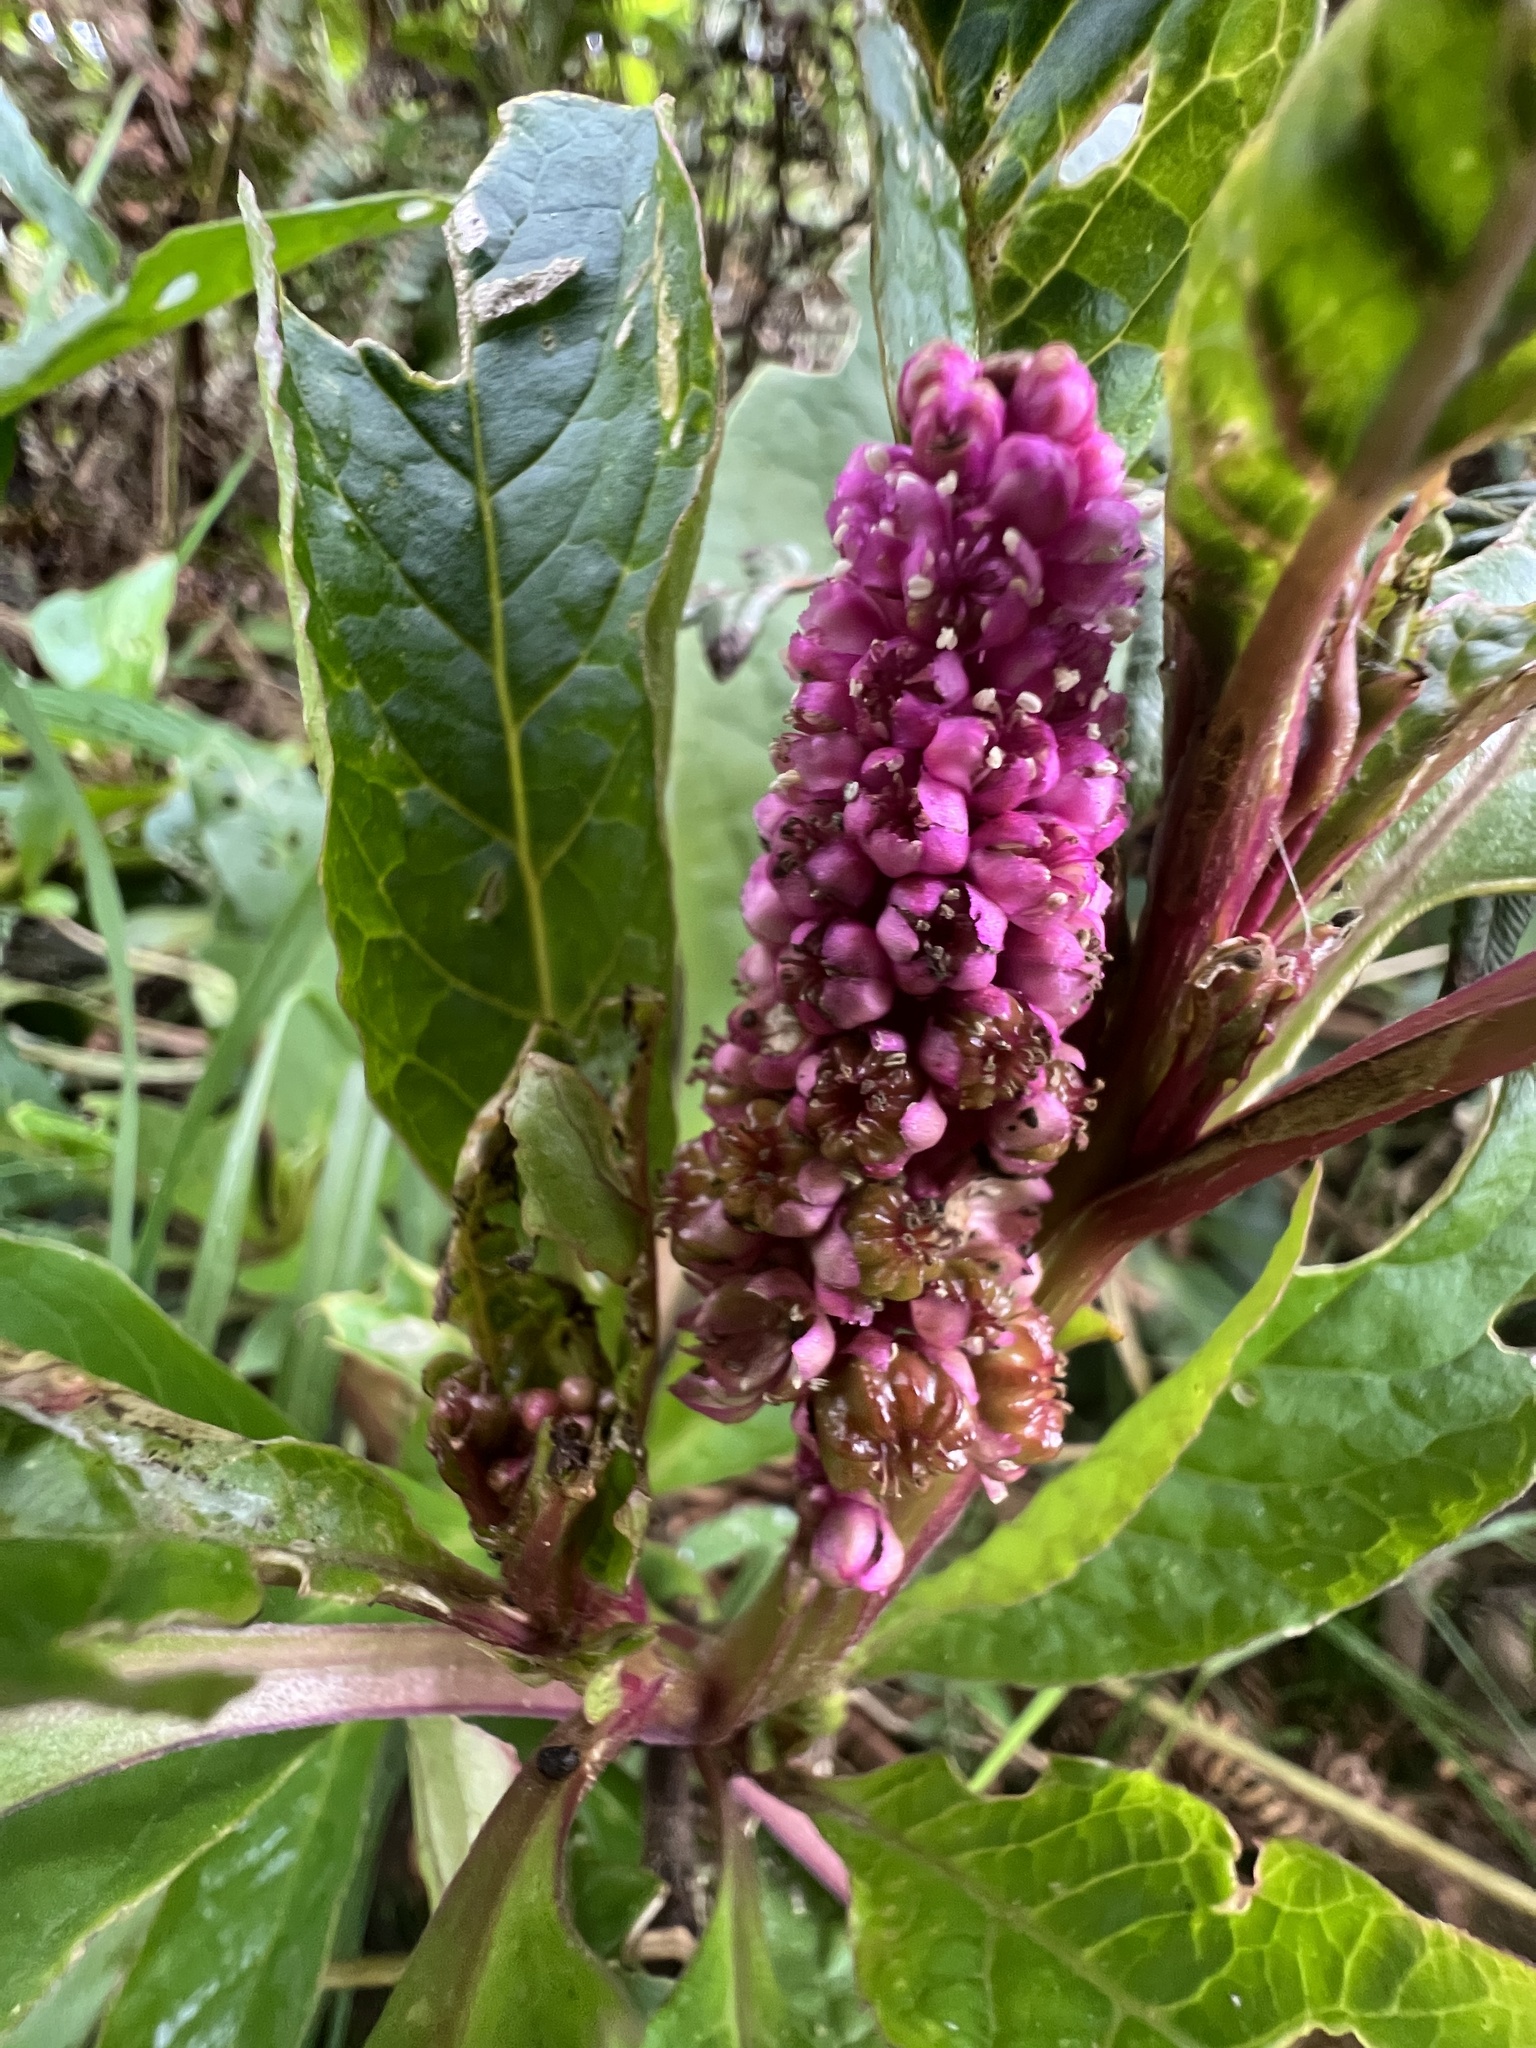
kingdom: Plantae
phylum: Tracheophyta
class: Magnoliopsida
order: Caryophyllales
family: Phytolaccaceae
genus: Phytolacca
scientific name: Phytolacca bogotensis
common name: Southern pokeweed
